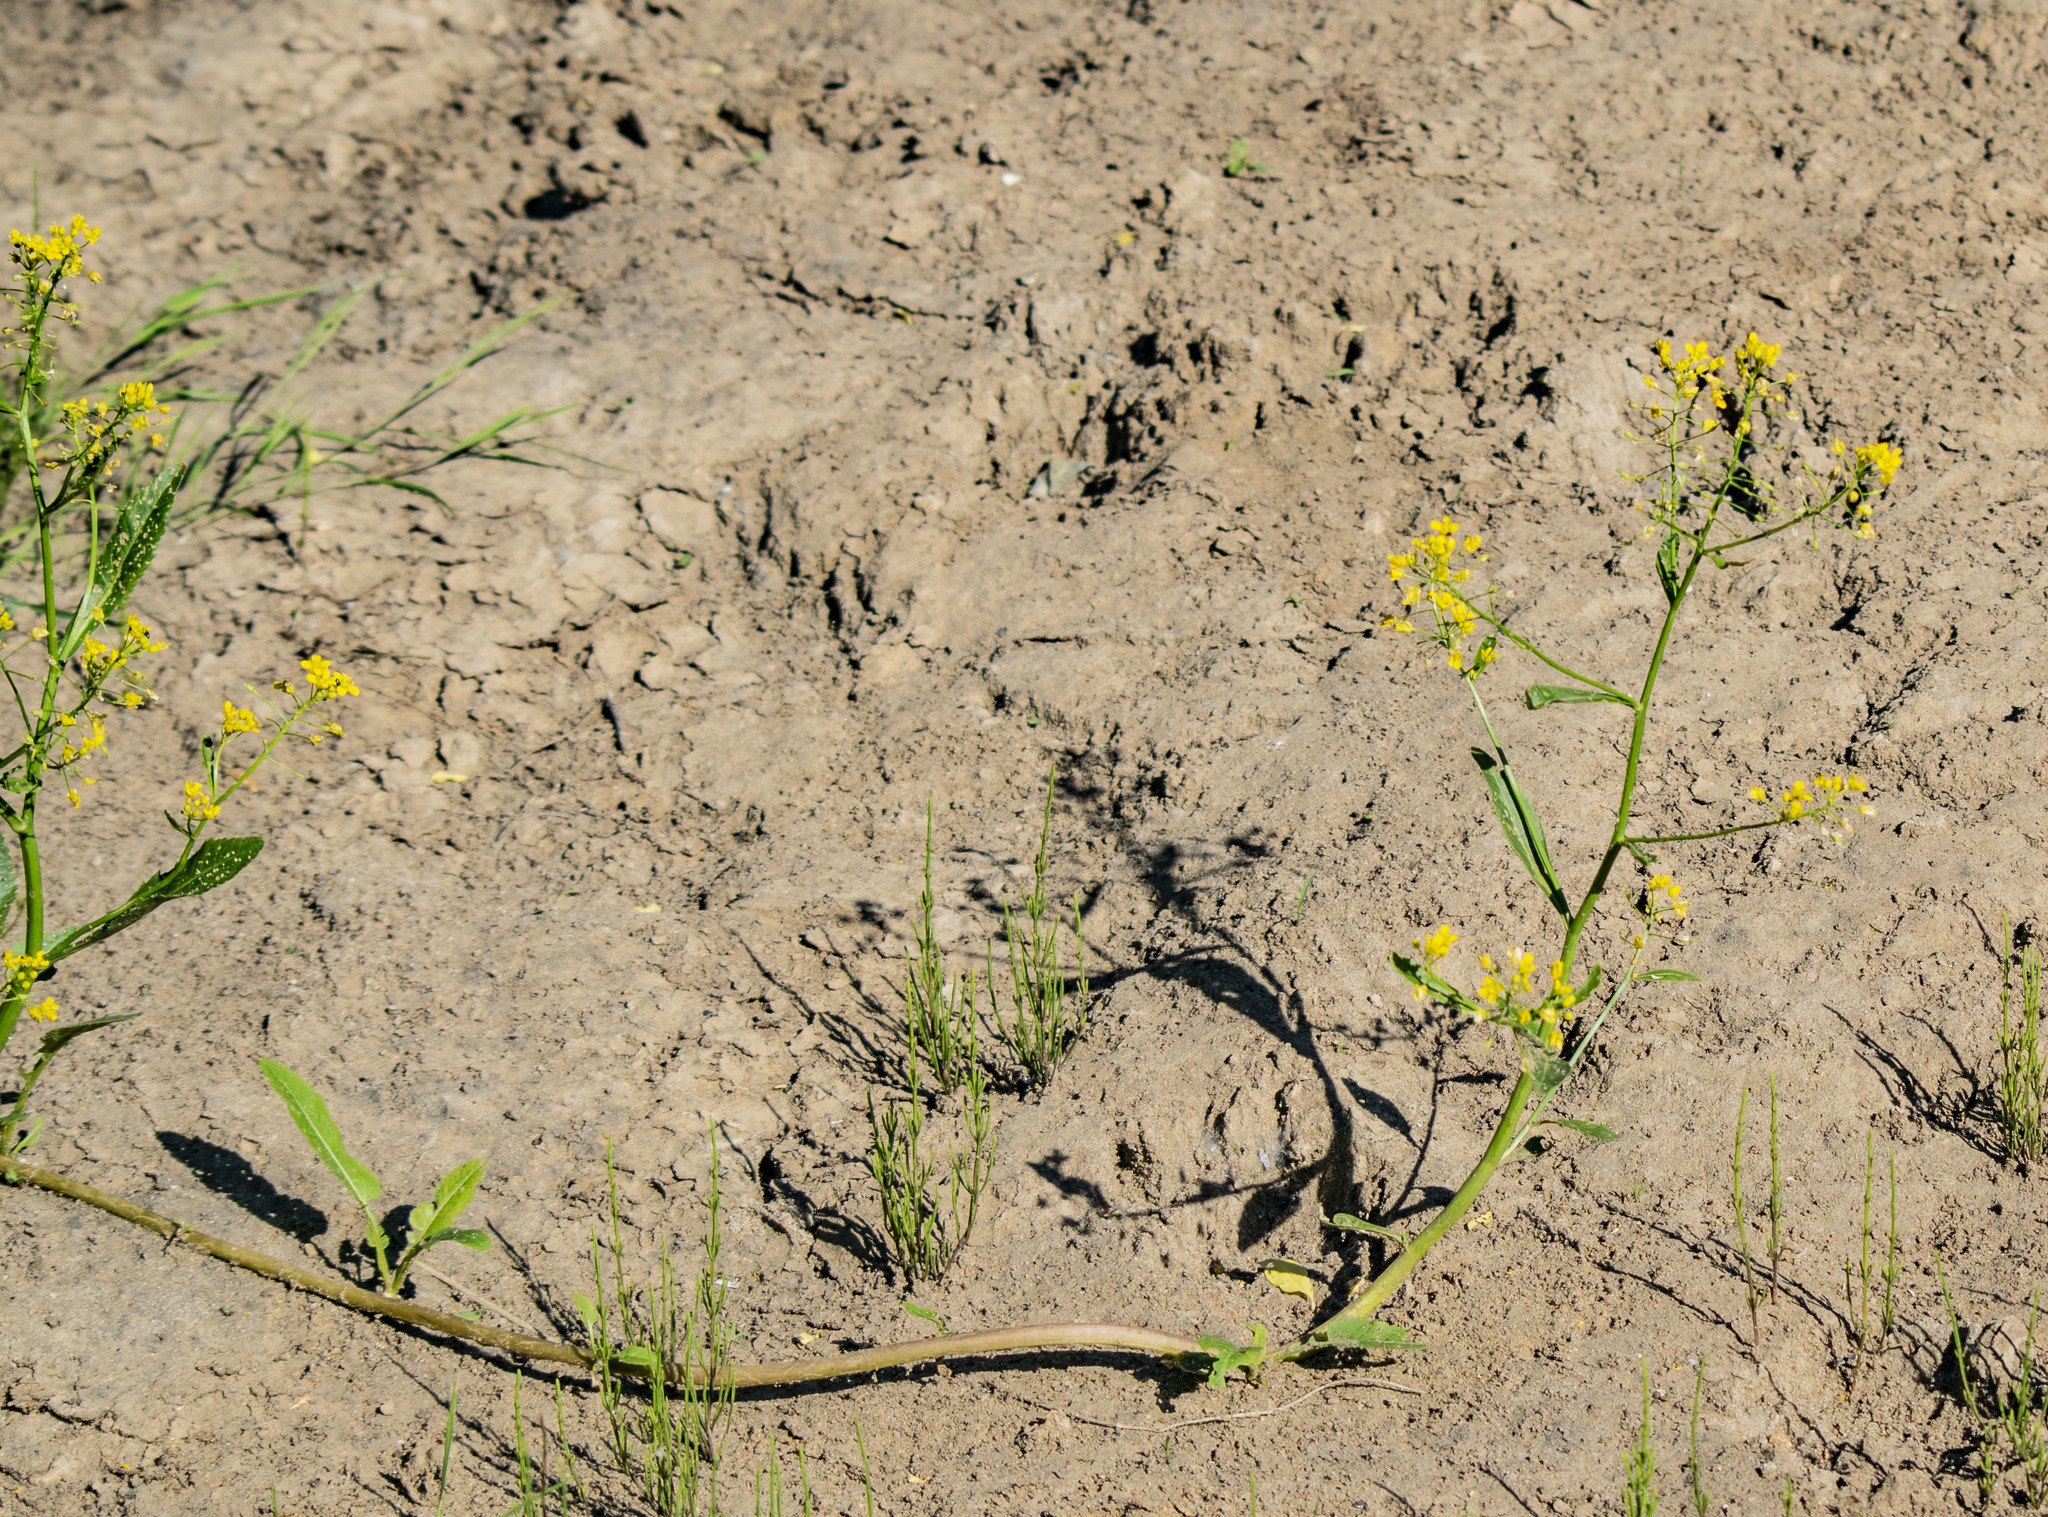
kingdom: Plantae
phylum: Tracheophyta
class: Magnoliopsida
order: Brassicales
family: Brassicaceae
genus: Rorippa
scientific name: Rorippa amphibia
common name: Great yellow-cress
